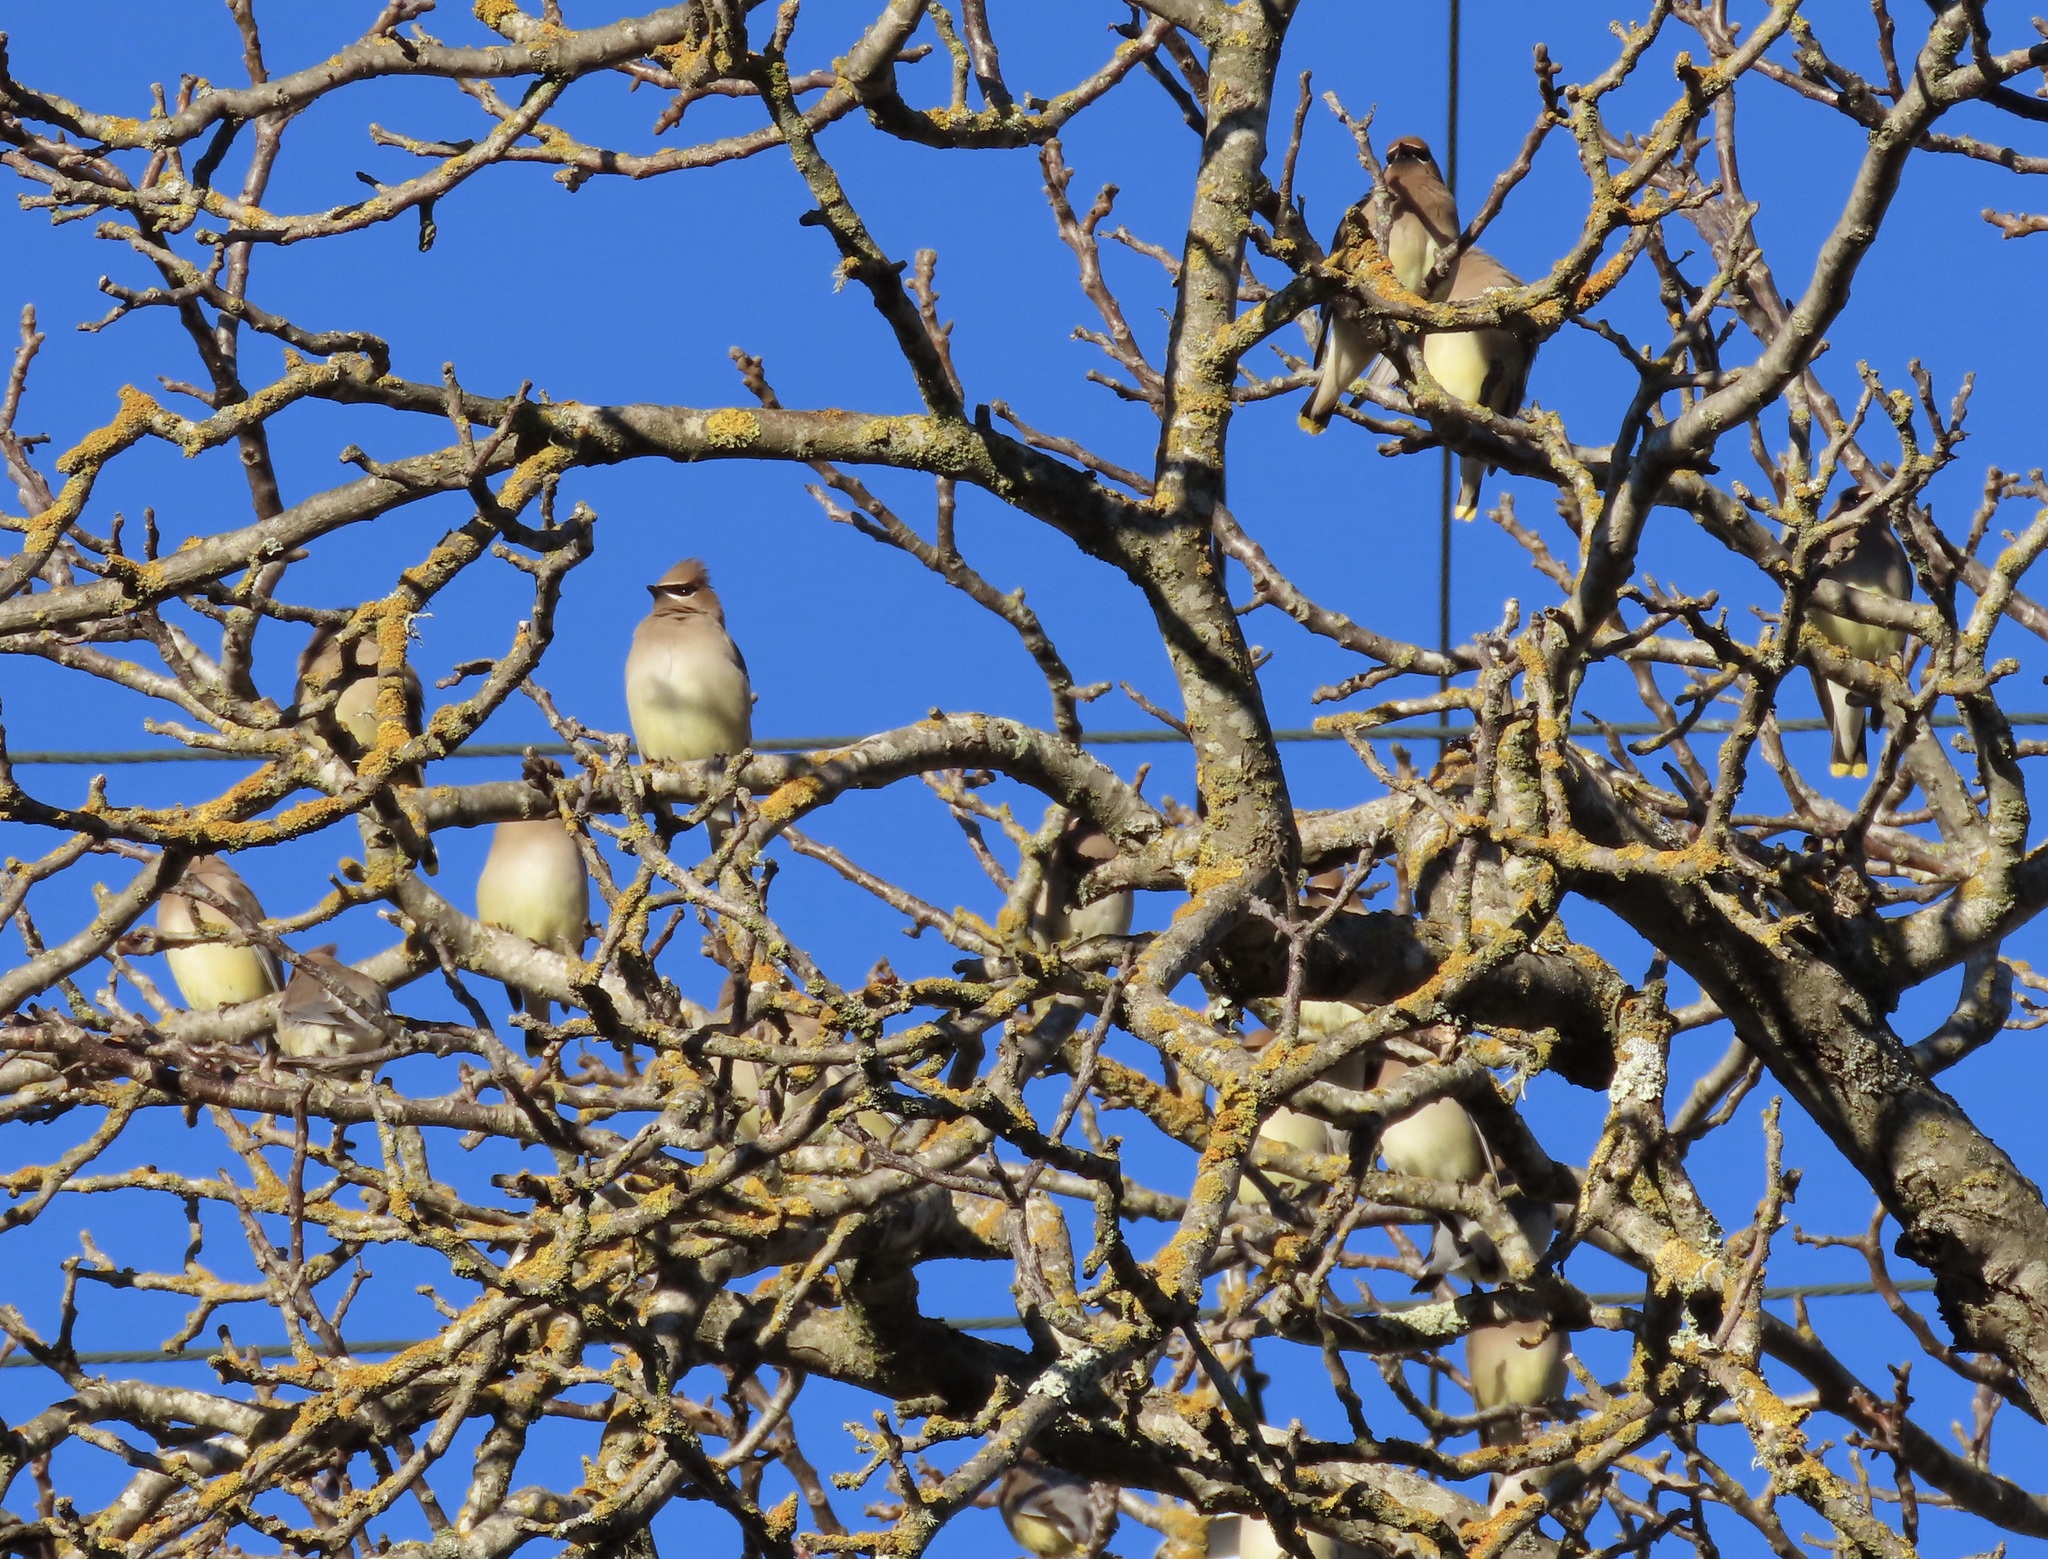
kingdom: Animalia
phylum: Chordata
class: Aves
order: Passeriformes
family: Bombycillidae
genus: Bombycilla
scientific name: Bombycilla cedrorum
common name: Cedar waxwing
